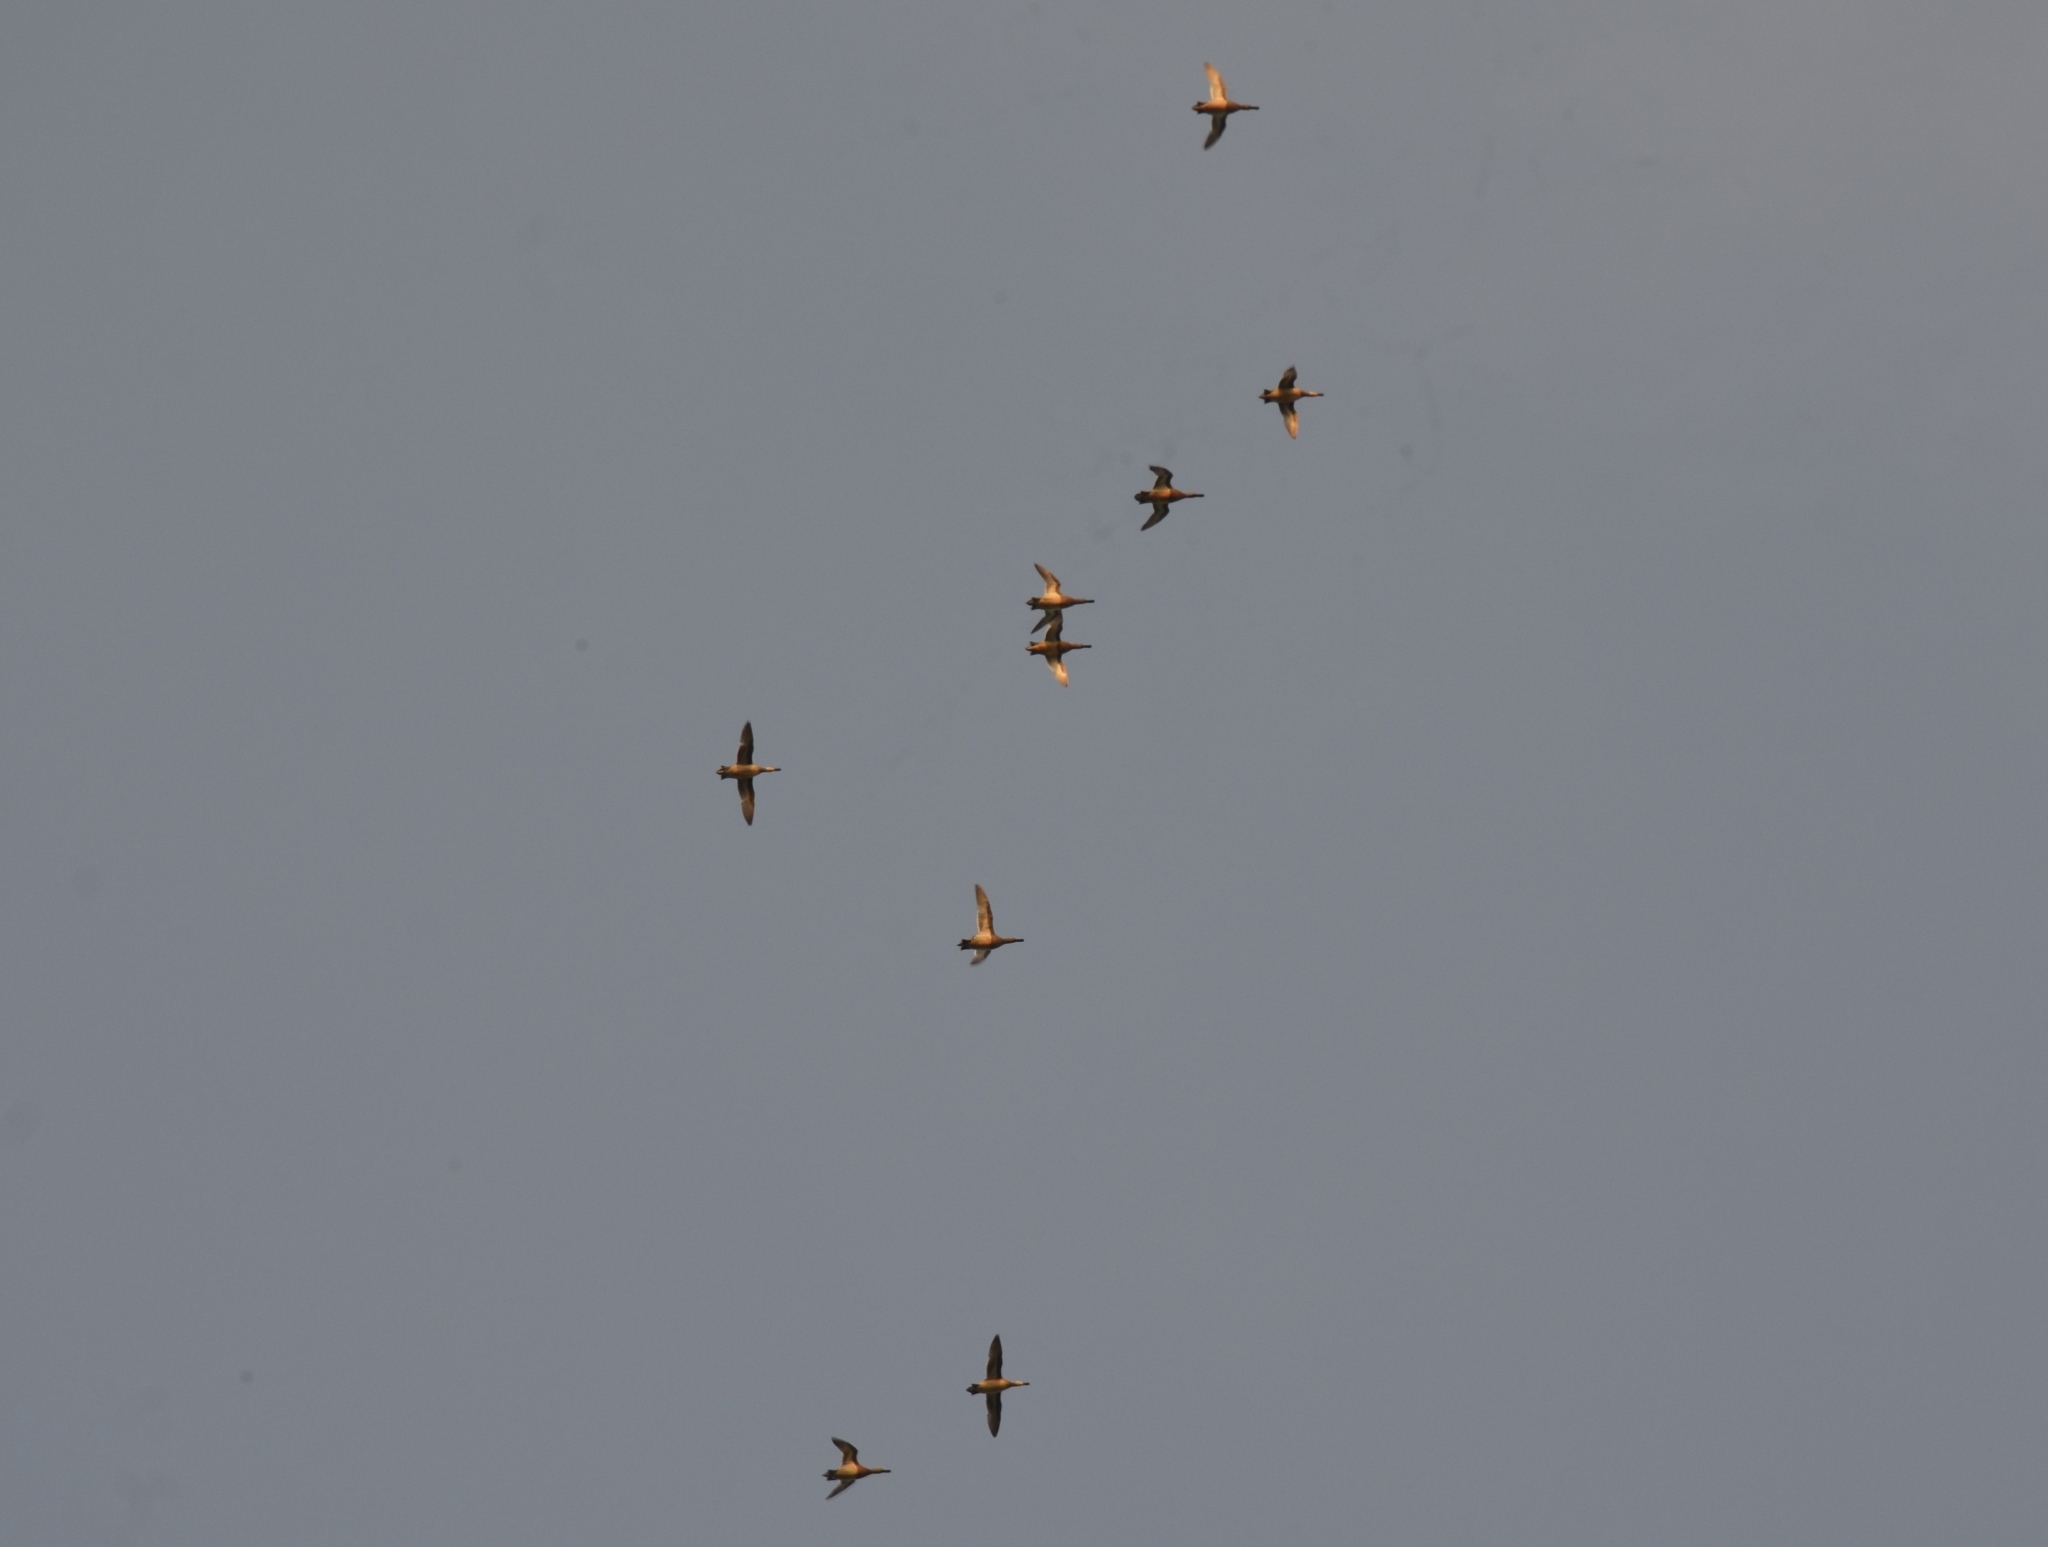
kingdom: Animalia
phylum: Chordata
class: Aves
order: Anseriformes
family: Anatidae
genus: Spatula
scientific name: Spatula querquedula
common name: Garganey
